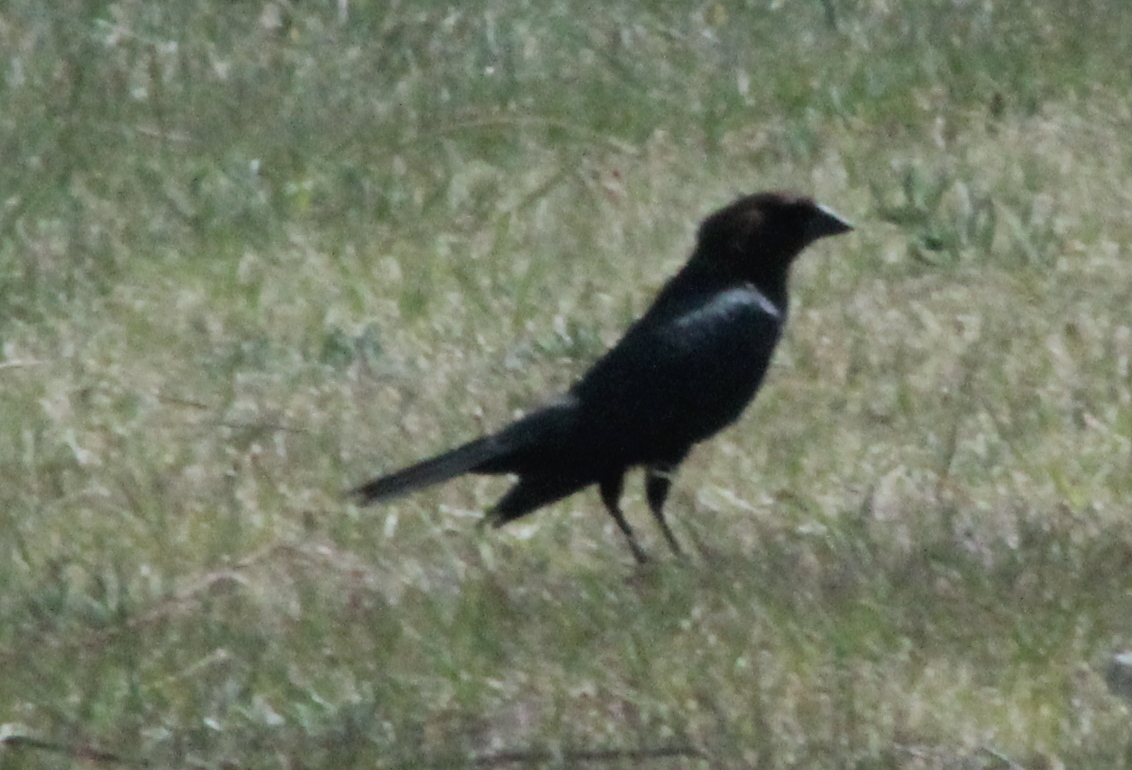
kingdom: Animalia
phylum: Chordata
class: Aves
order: Passeriformes
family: Icteridae
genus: Molothrus
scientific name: Molothrus ater
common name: Brown-headed cowbird
